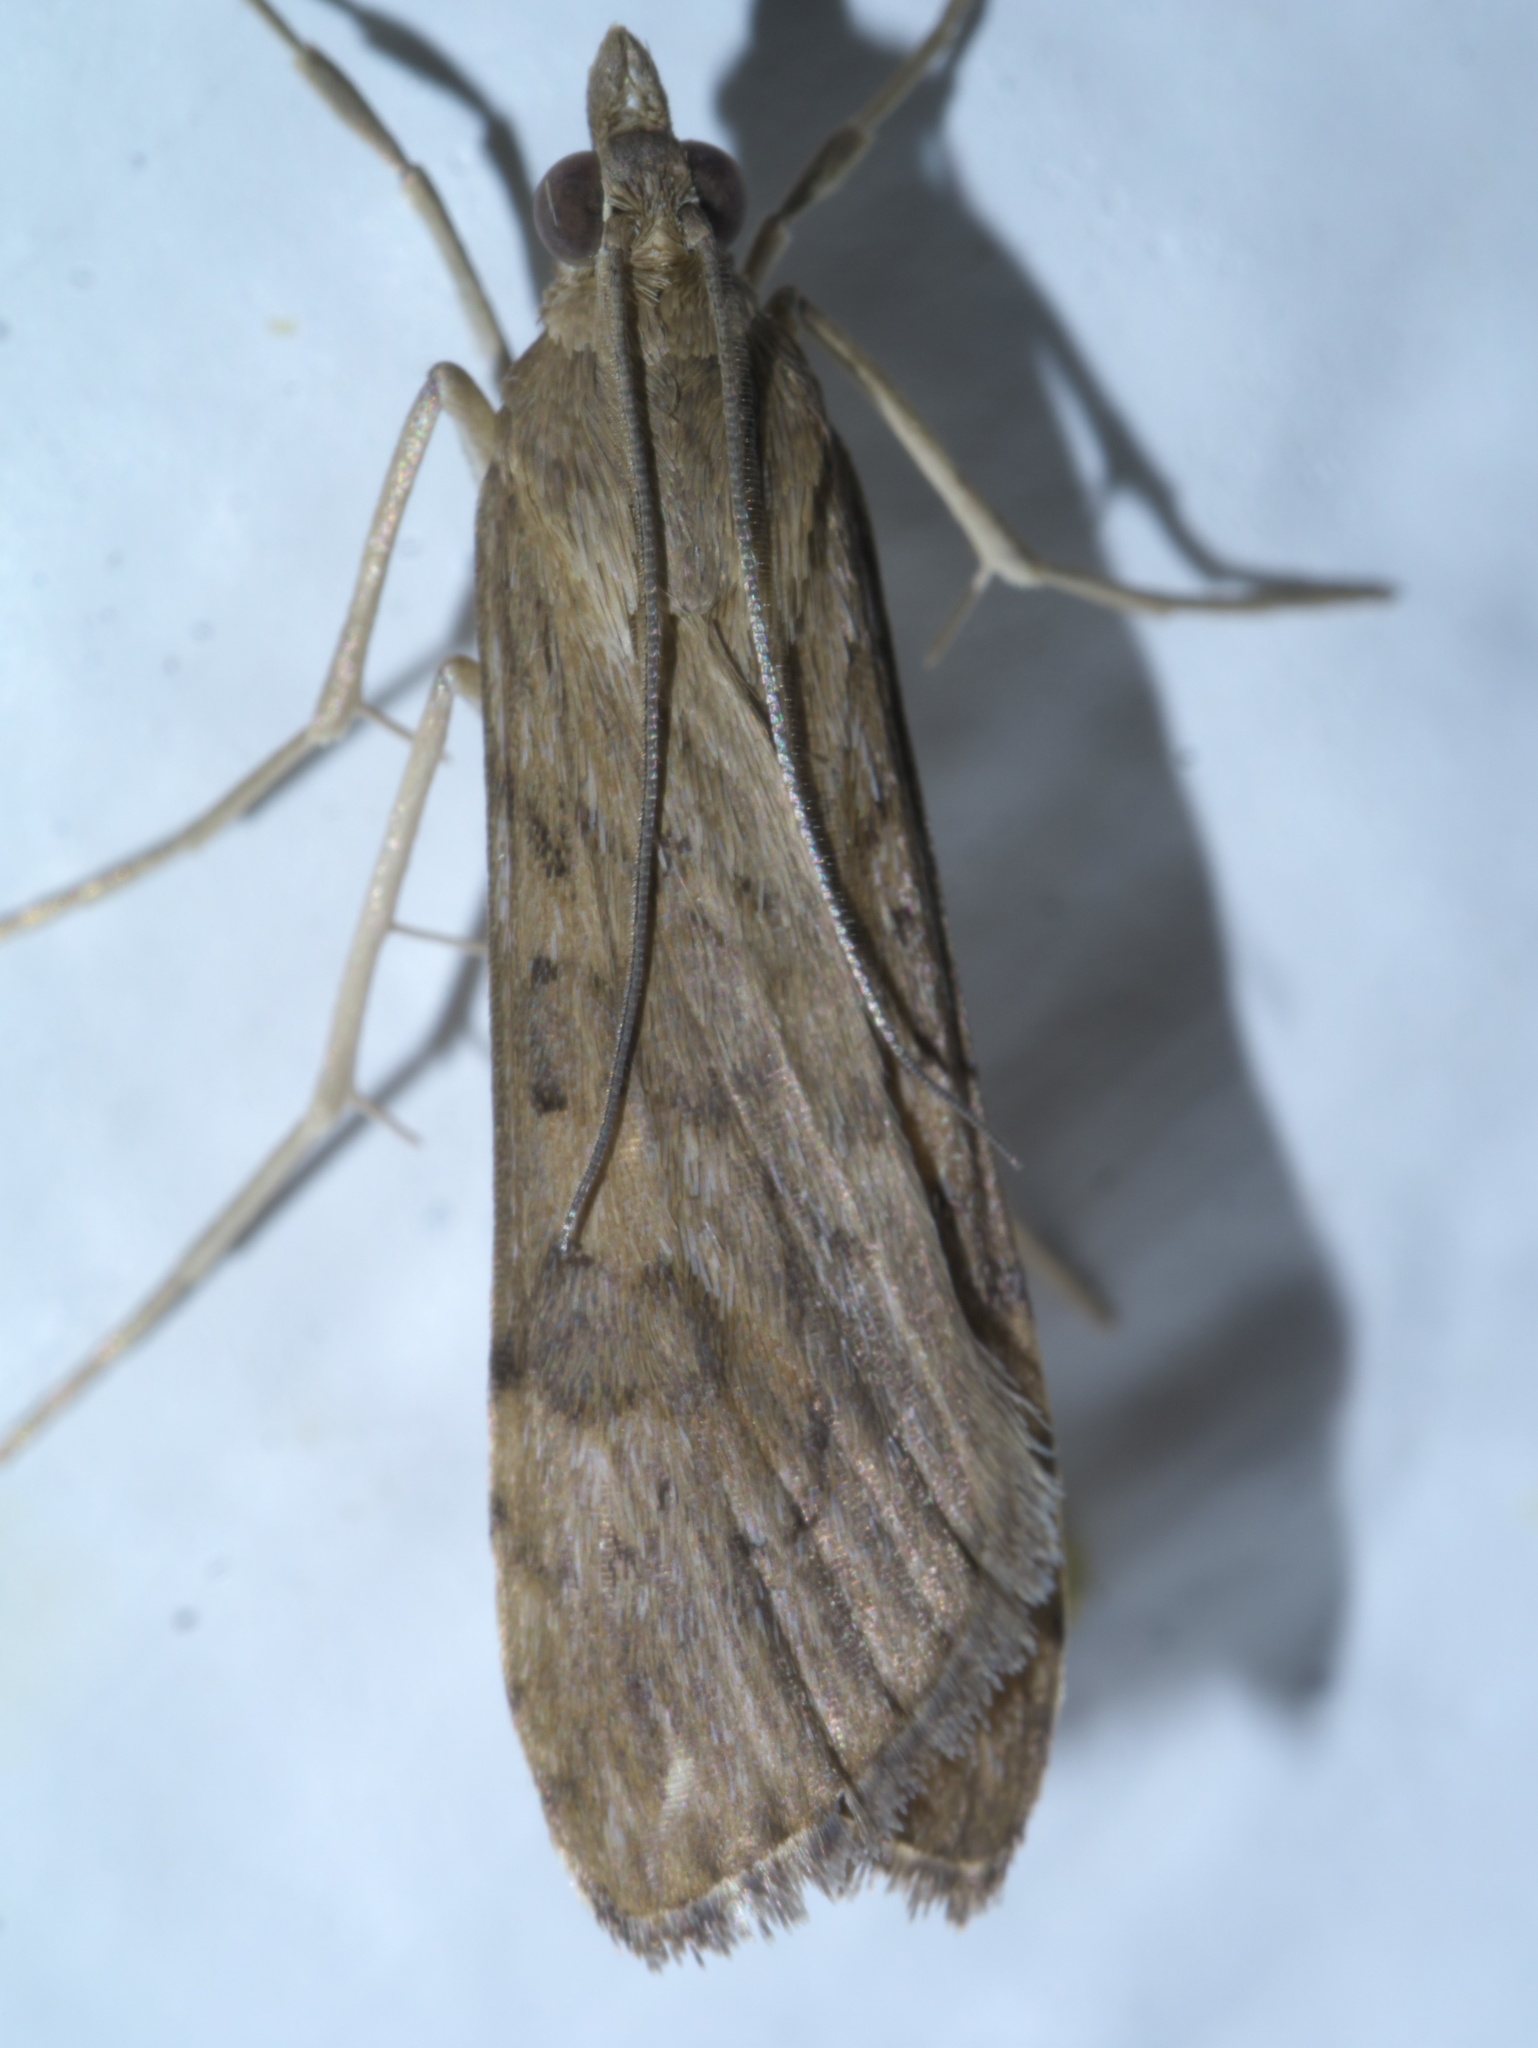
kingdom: Animalia
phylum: Arthropoda
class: Insecta
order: Lepidoptera
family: Crambidae
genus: Nomophila
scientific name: Nomophila nearctica
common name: American rush veneer
